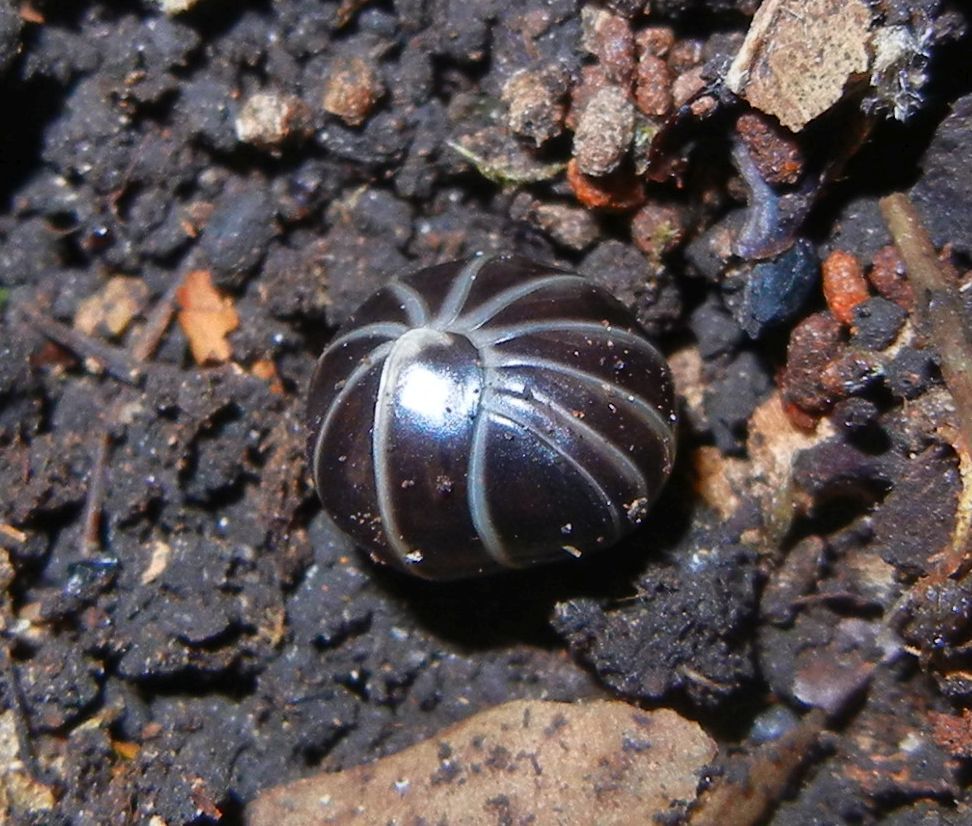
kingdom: Animalia
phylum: Arthropoda
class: Diplopoda
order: Glomerida
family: Glomeridae
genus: Glomeris
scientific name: Glomeris marginata
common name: Bordered pill millipede
